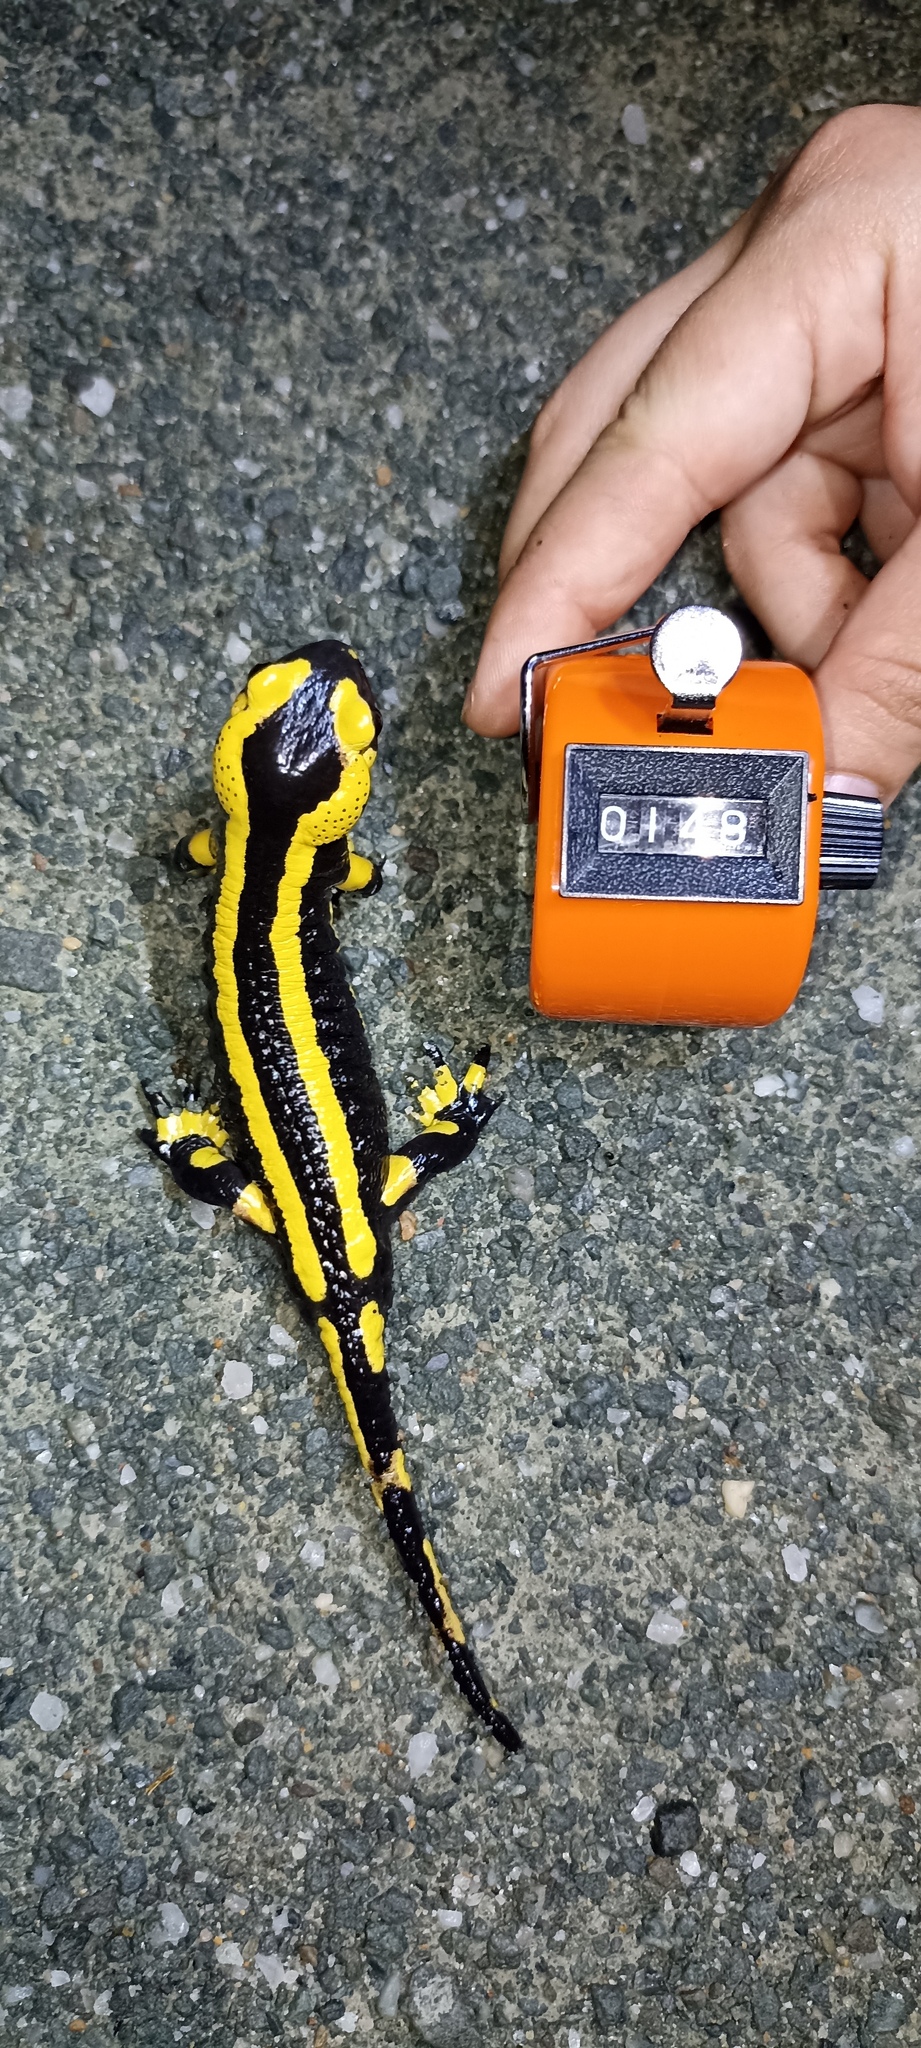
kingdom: Animalia
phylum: Chordata
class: Amphibia
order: Caudata
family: Salamandridae
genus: Salamandra
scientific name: Salamandra salamandra
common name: Fire salamander
